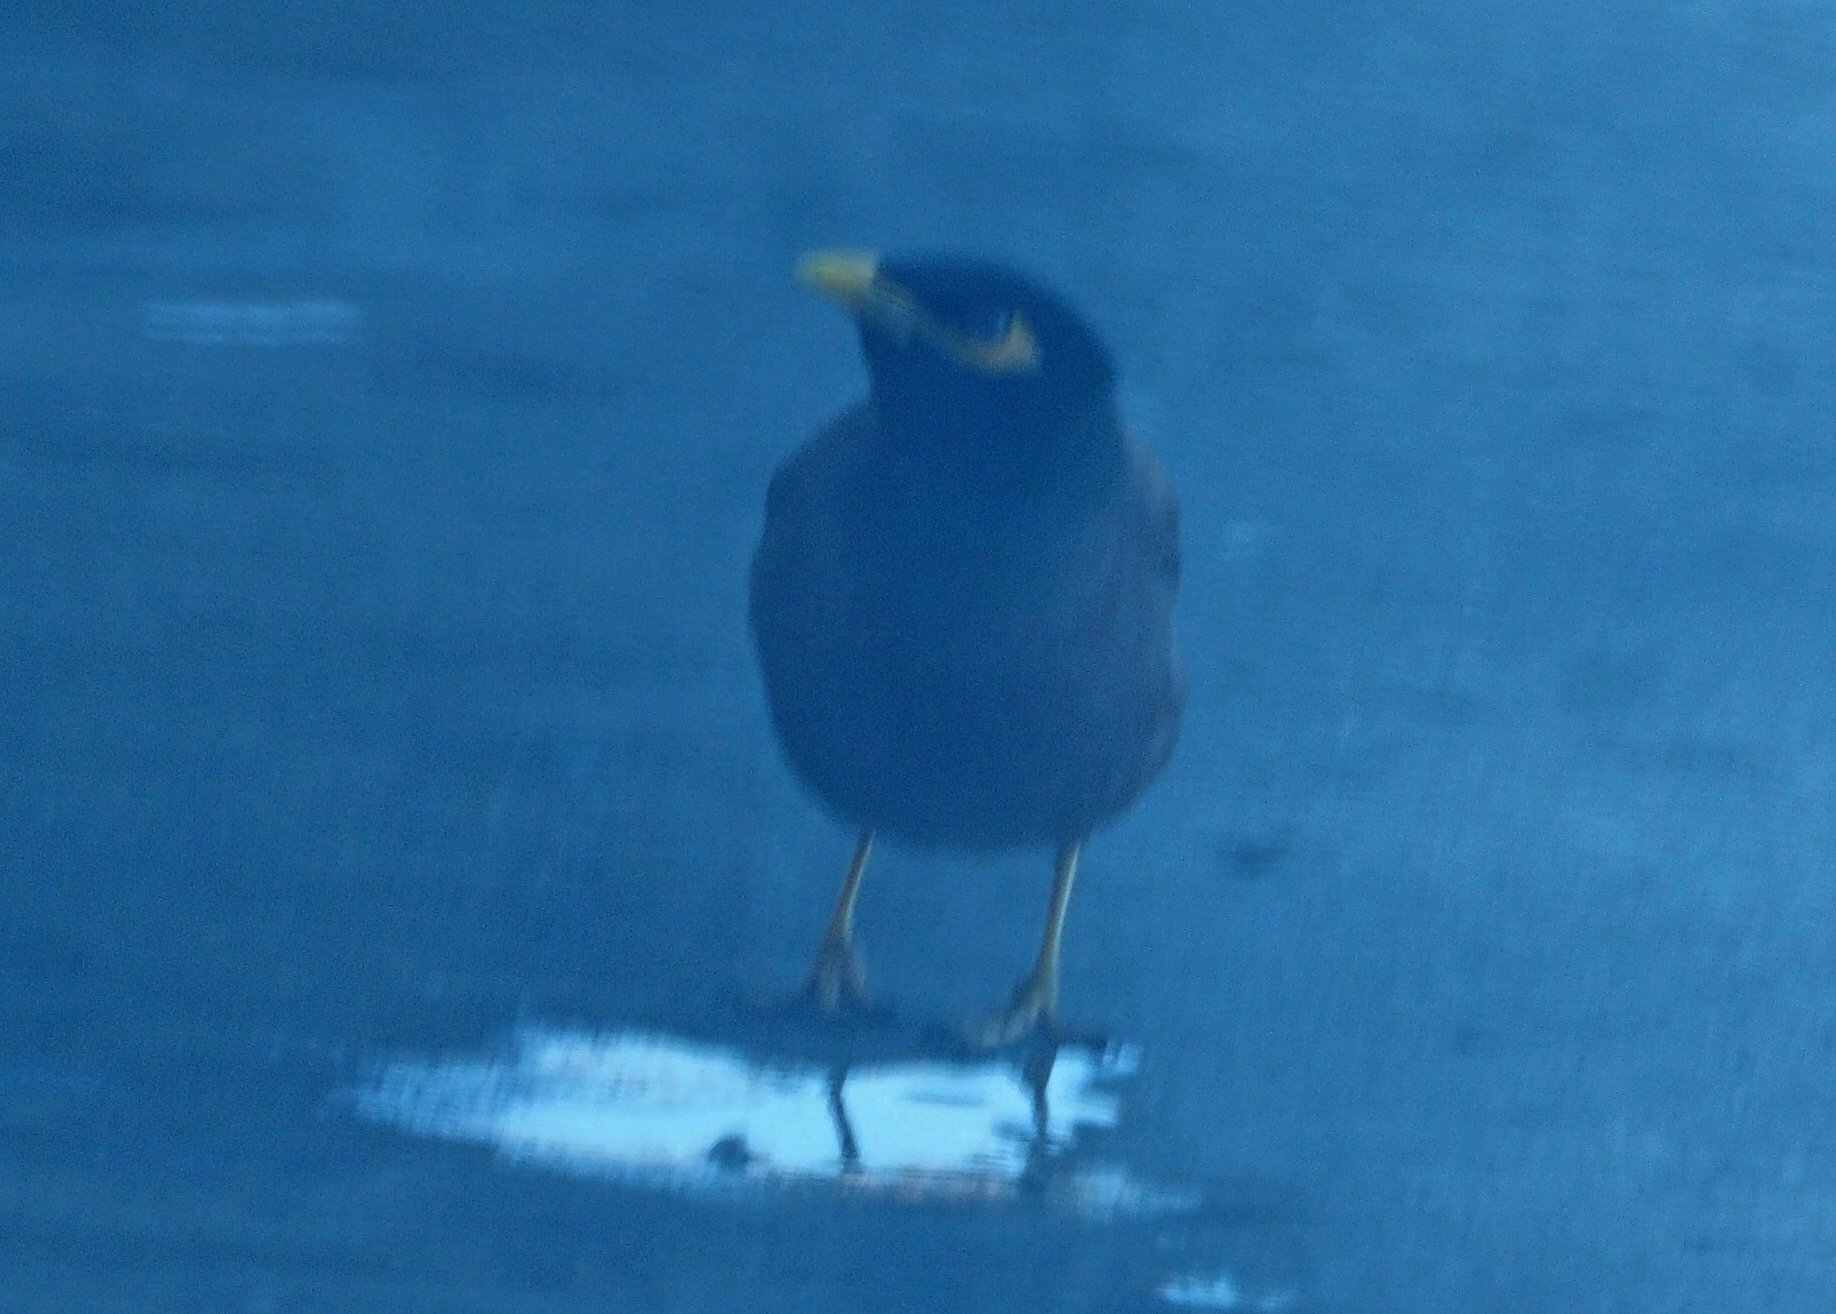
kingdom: Animalia
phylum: Chordata
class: Aves
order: Passeriformes
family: Sturnidae
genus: Acridotheres
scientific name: Acridotheres tristis
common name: Common myna
